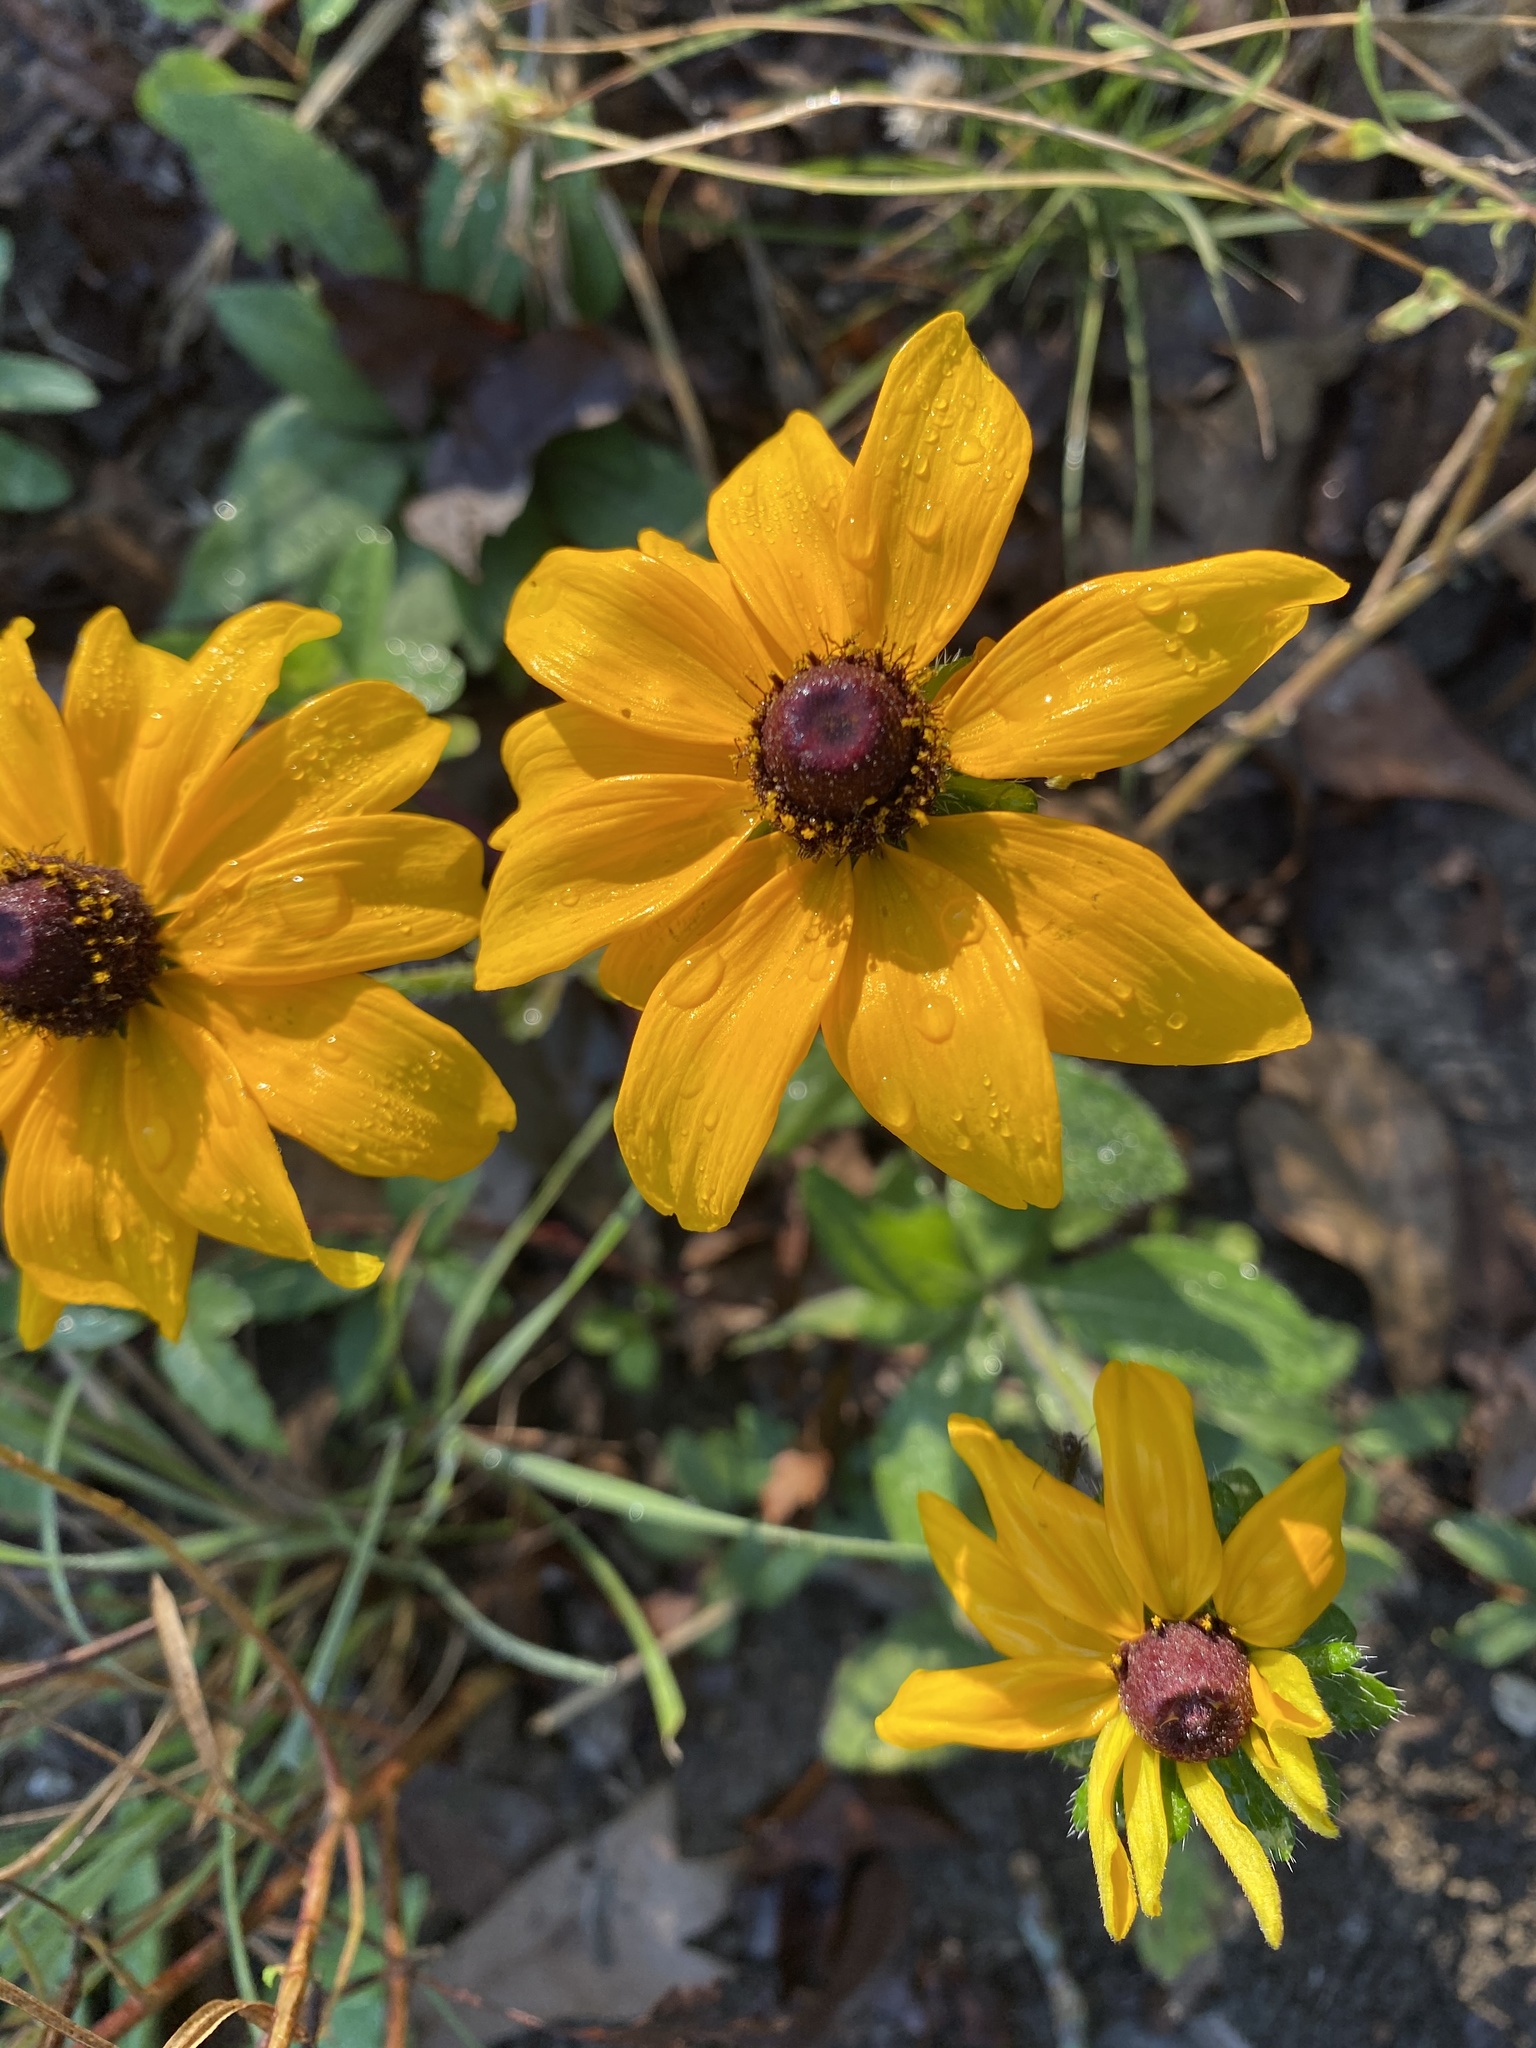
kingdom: Plantae
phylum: Tracheophyta
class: Magnoliopsida
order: Asterales
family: Asteraceae
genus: Rudbeckia
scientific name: Rudbeckia hirta
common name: Black-eyed-susan
